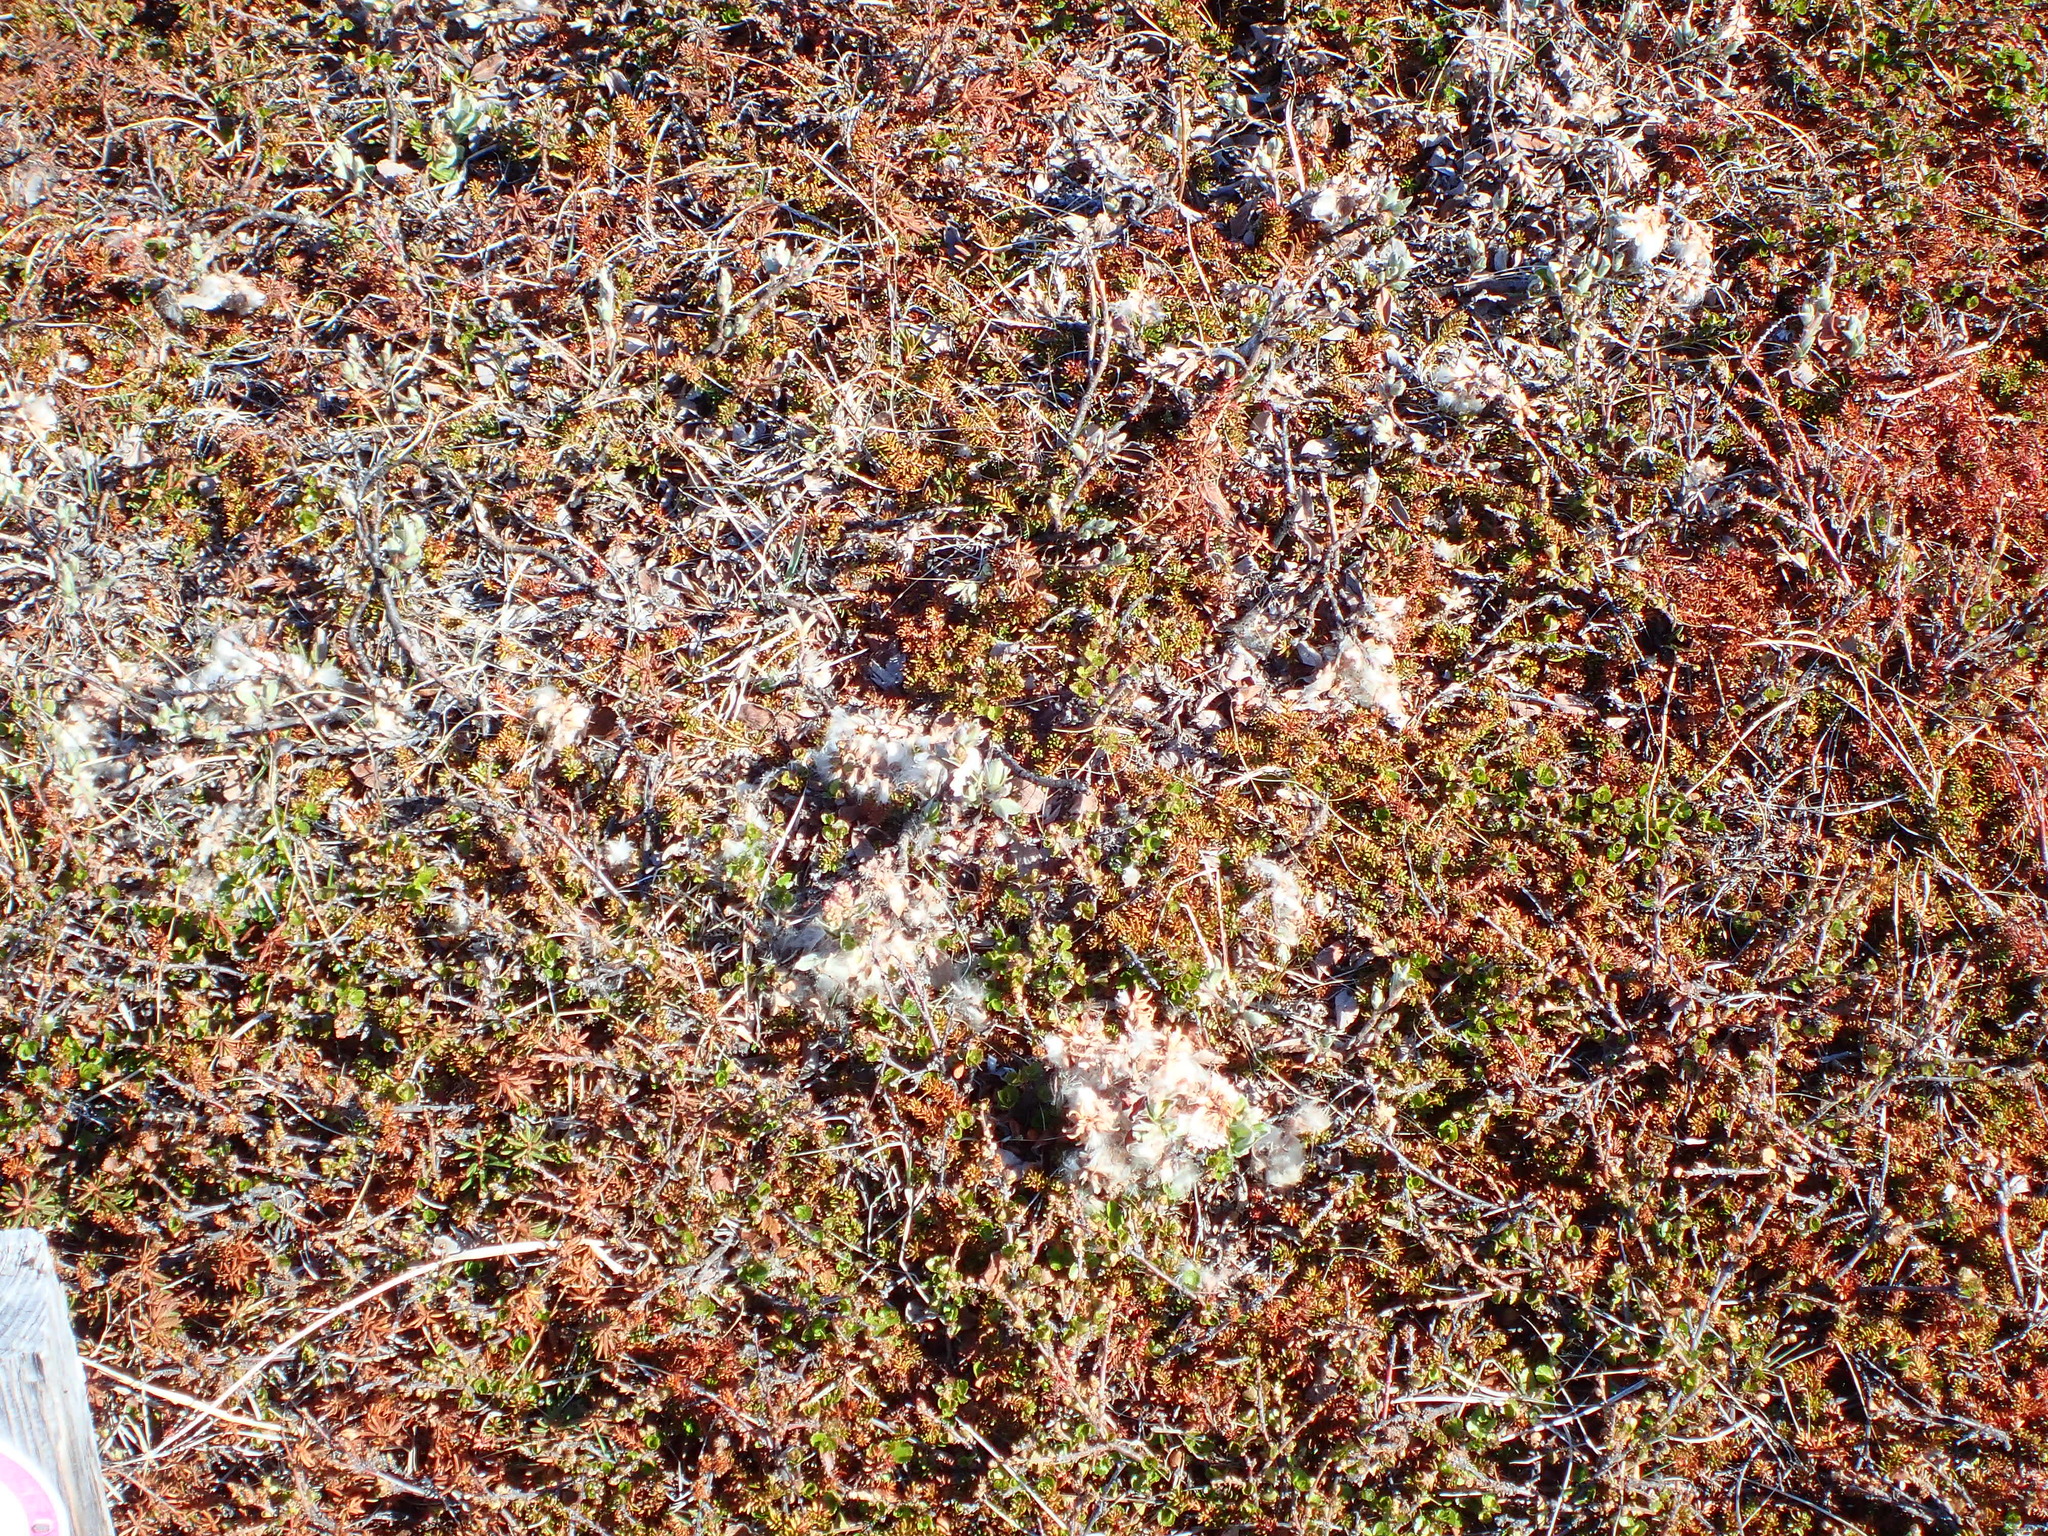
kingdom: Plantae
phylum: Tracheophyta
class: Magnoliopsida
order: Ericales
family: Ericaceae
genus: Empetrum
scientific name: Empetrum hermaphroditum
